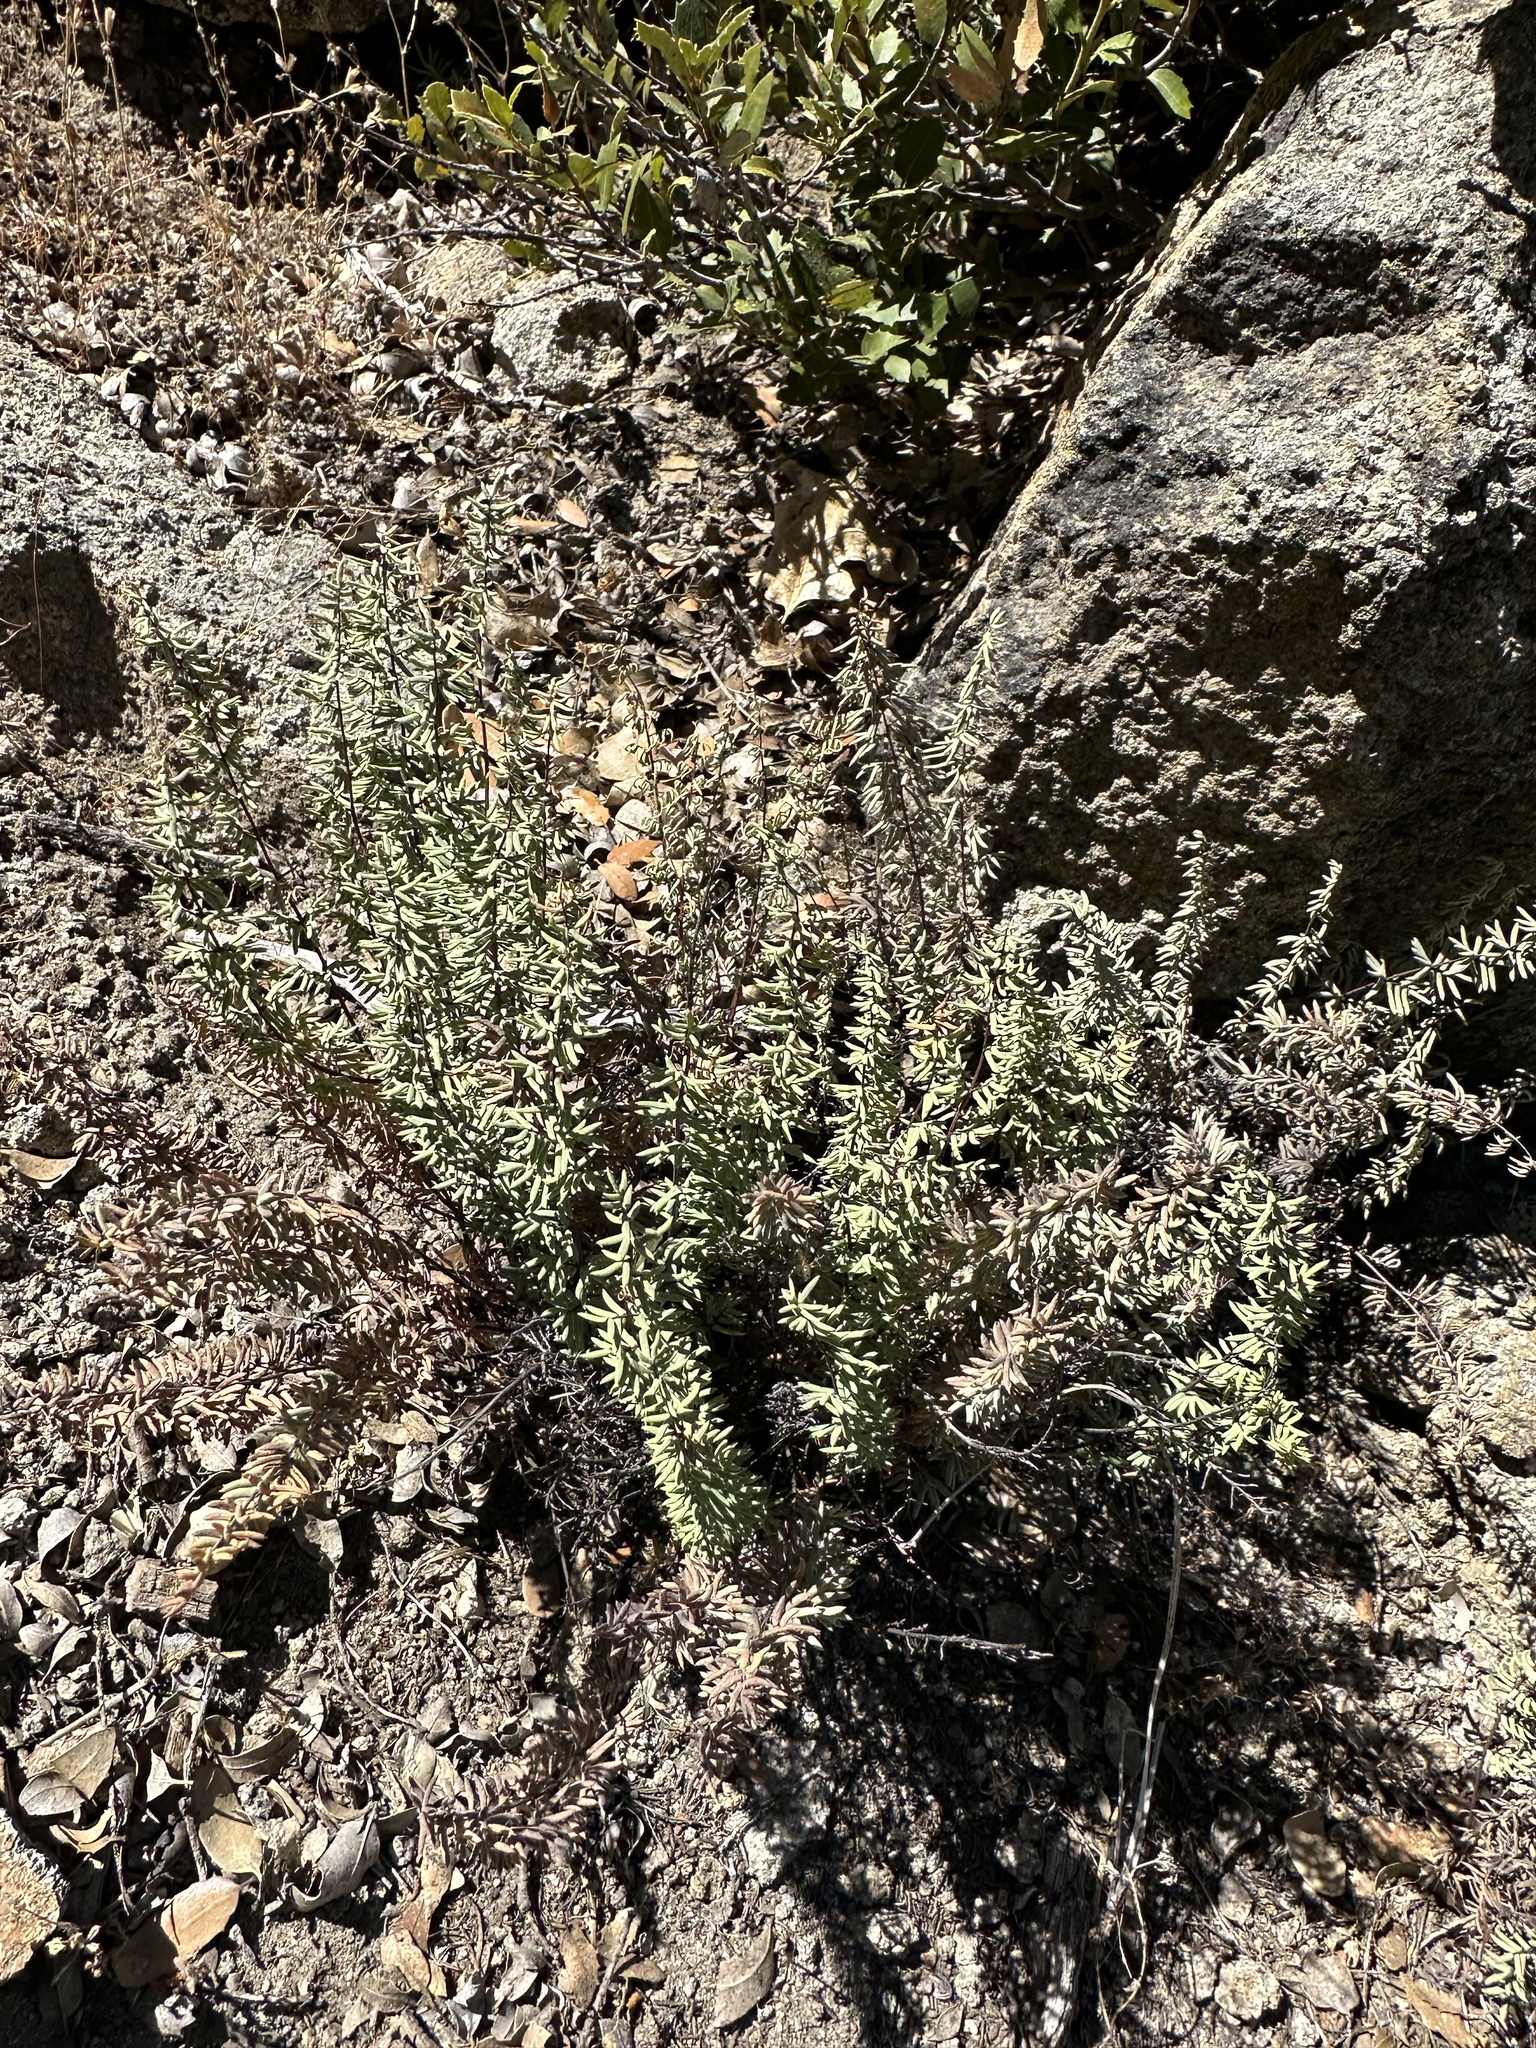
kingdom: Plantae
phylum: Tracheophyta
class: Polypodiopsida
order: Polypodiales
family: Pteridaceae
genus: Pellaea
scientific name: Pellaea brachyptera
